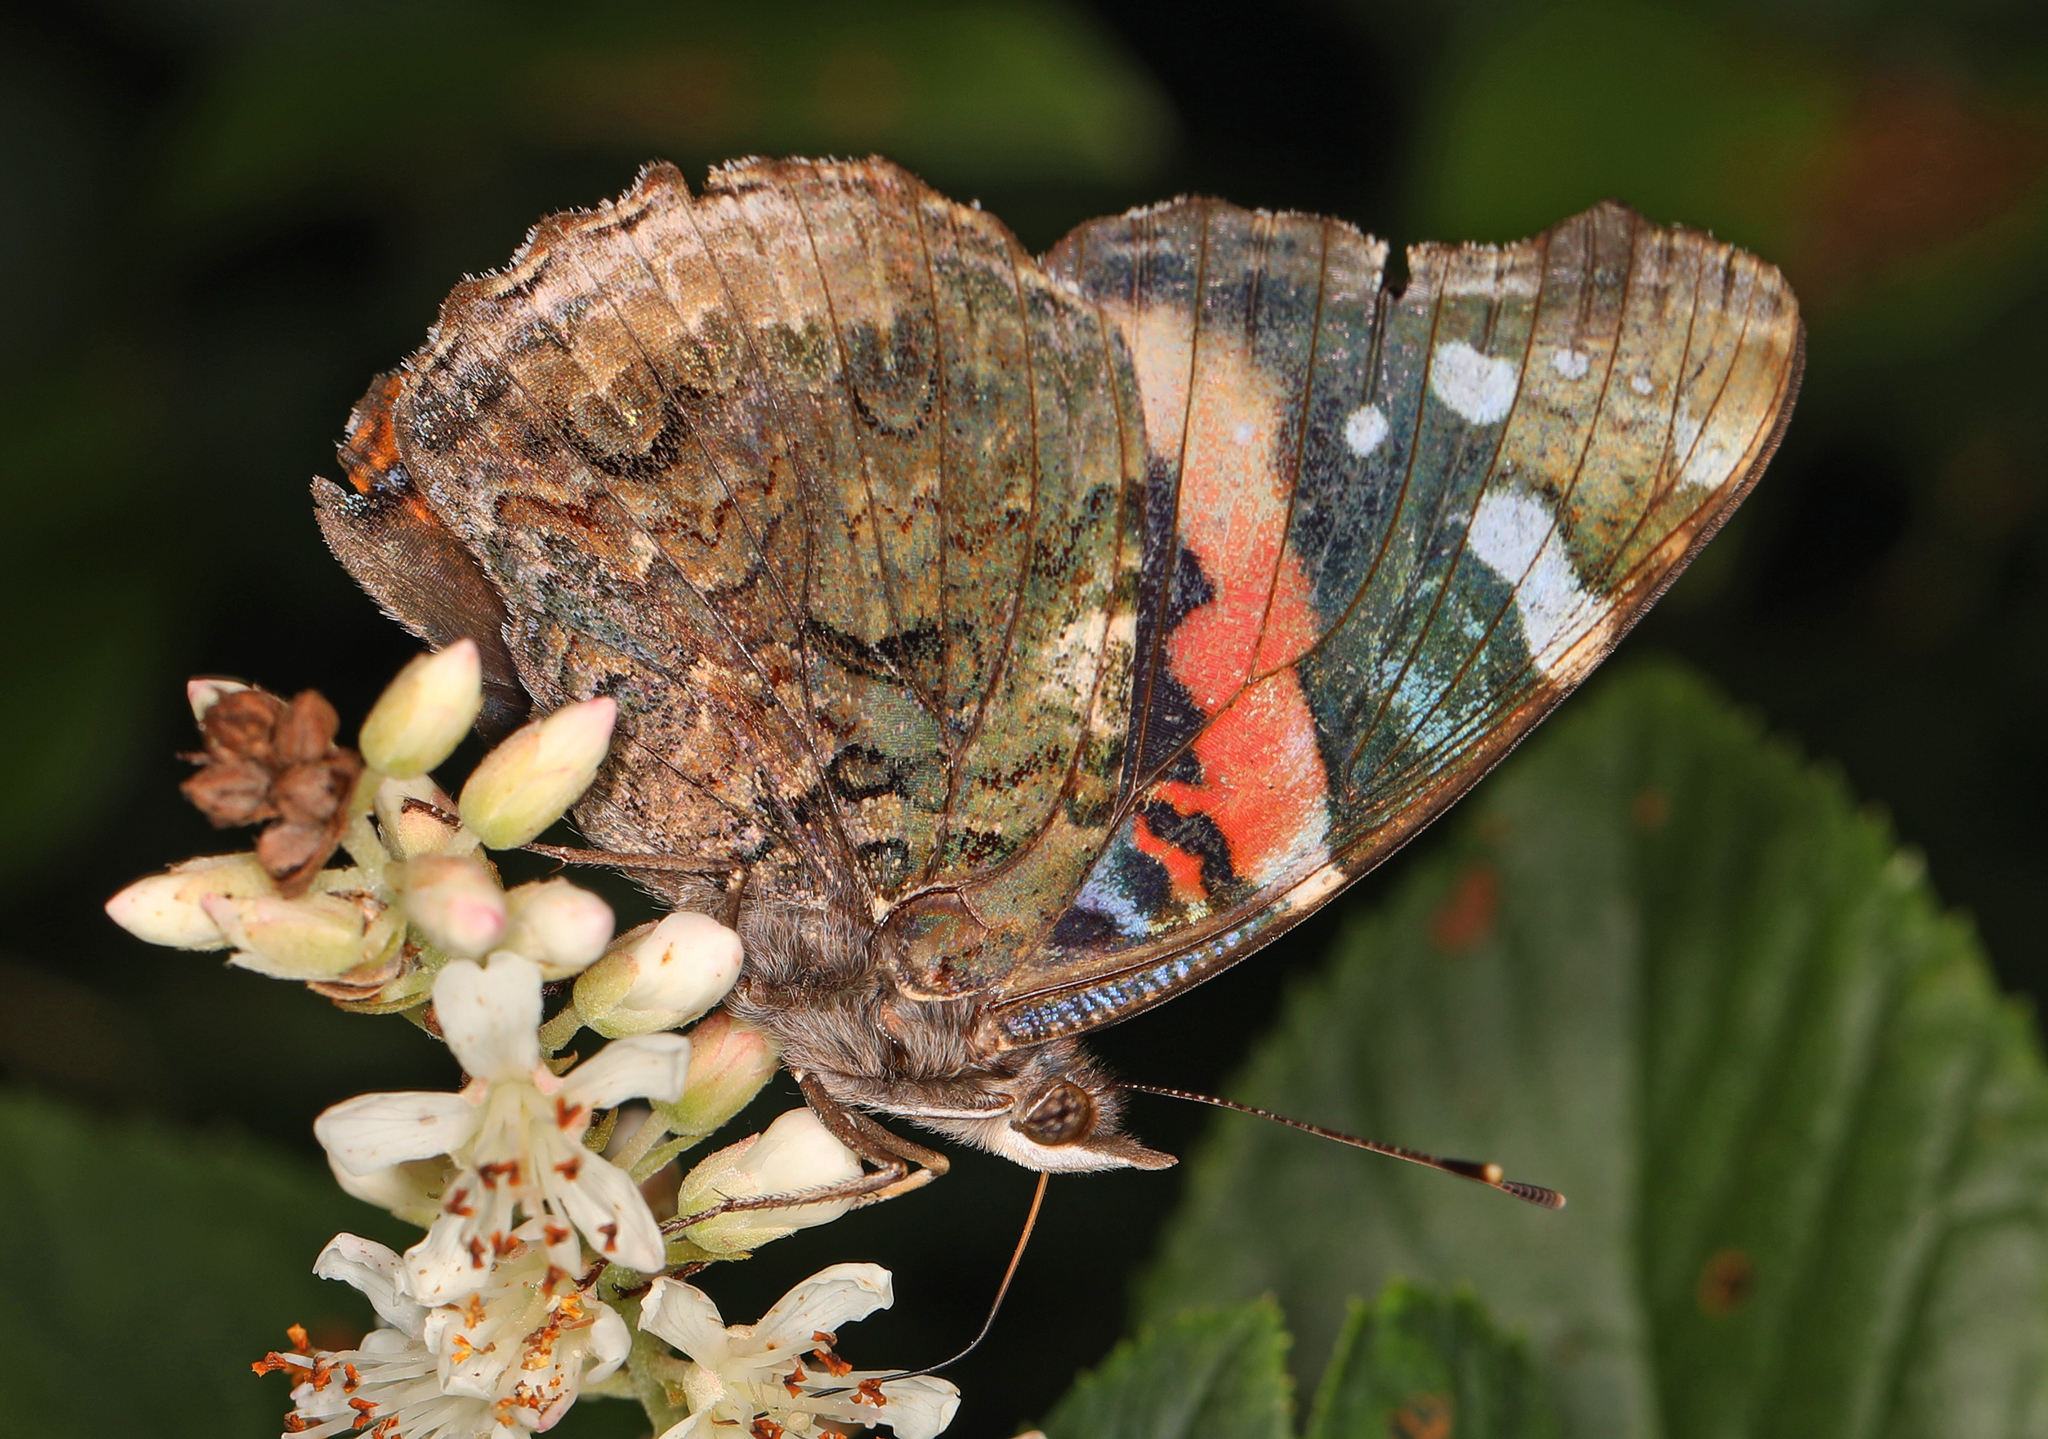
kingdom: Animalia
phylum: Arthropoda
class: Insecta
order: Lepidoptera
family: Nymphalidae
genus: Vanessa
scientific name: Vanessa atalanta
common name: Red admiral
